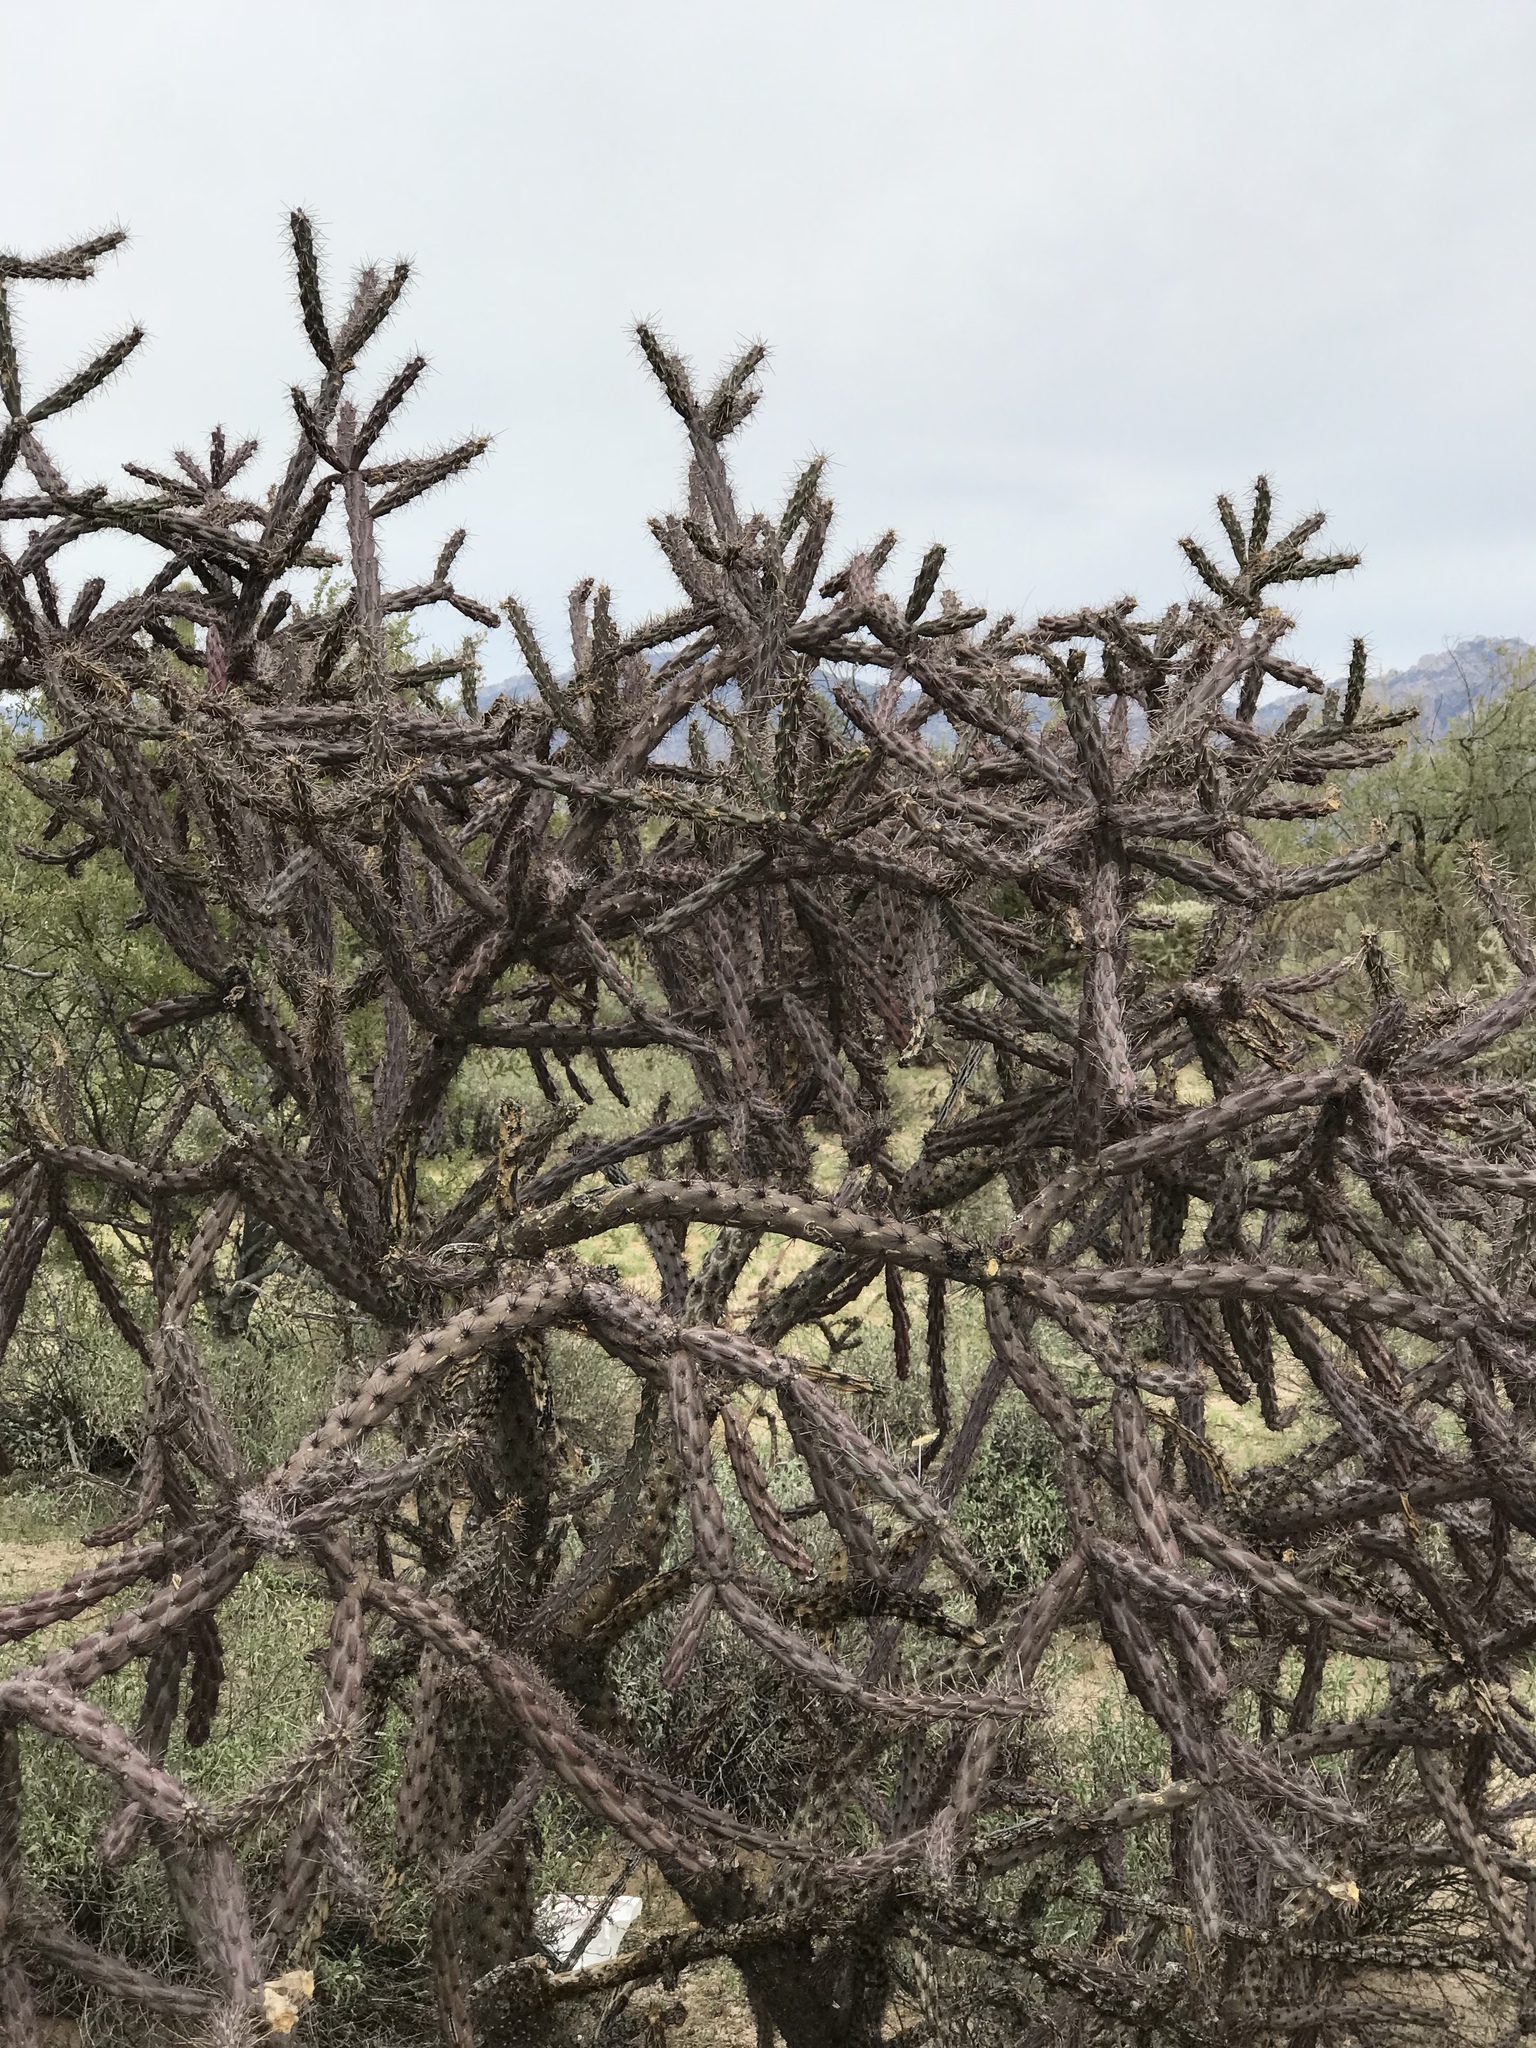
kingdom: Plantae
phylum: Tracheophyta
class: Magnoliopsida
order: Caryophyllales
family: Cactaceae
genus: Cylindropuntia
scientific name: Cylindropuntia thurberi
